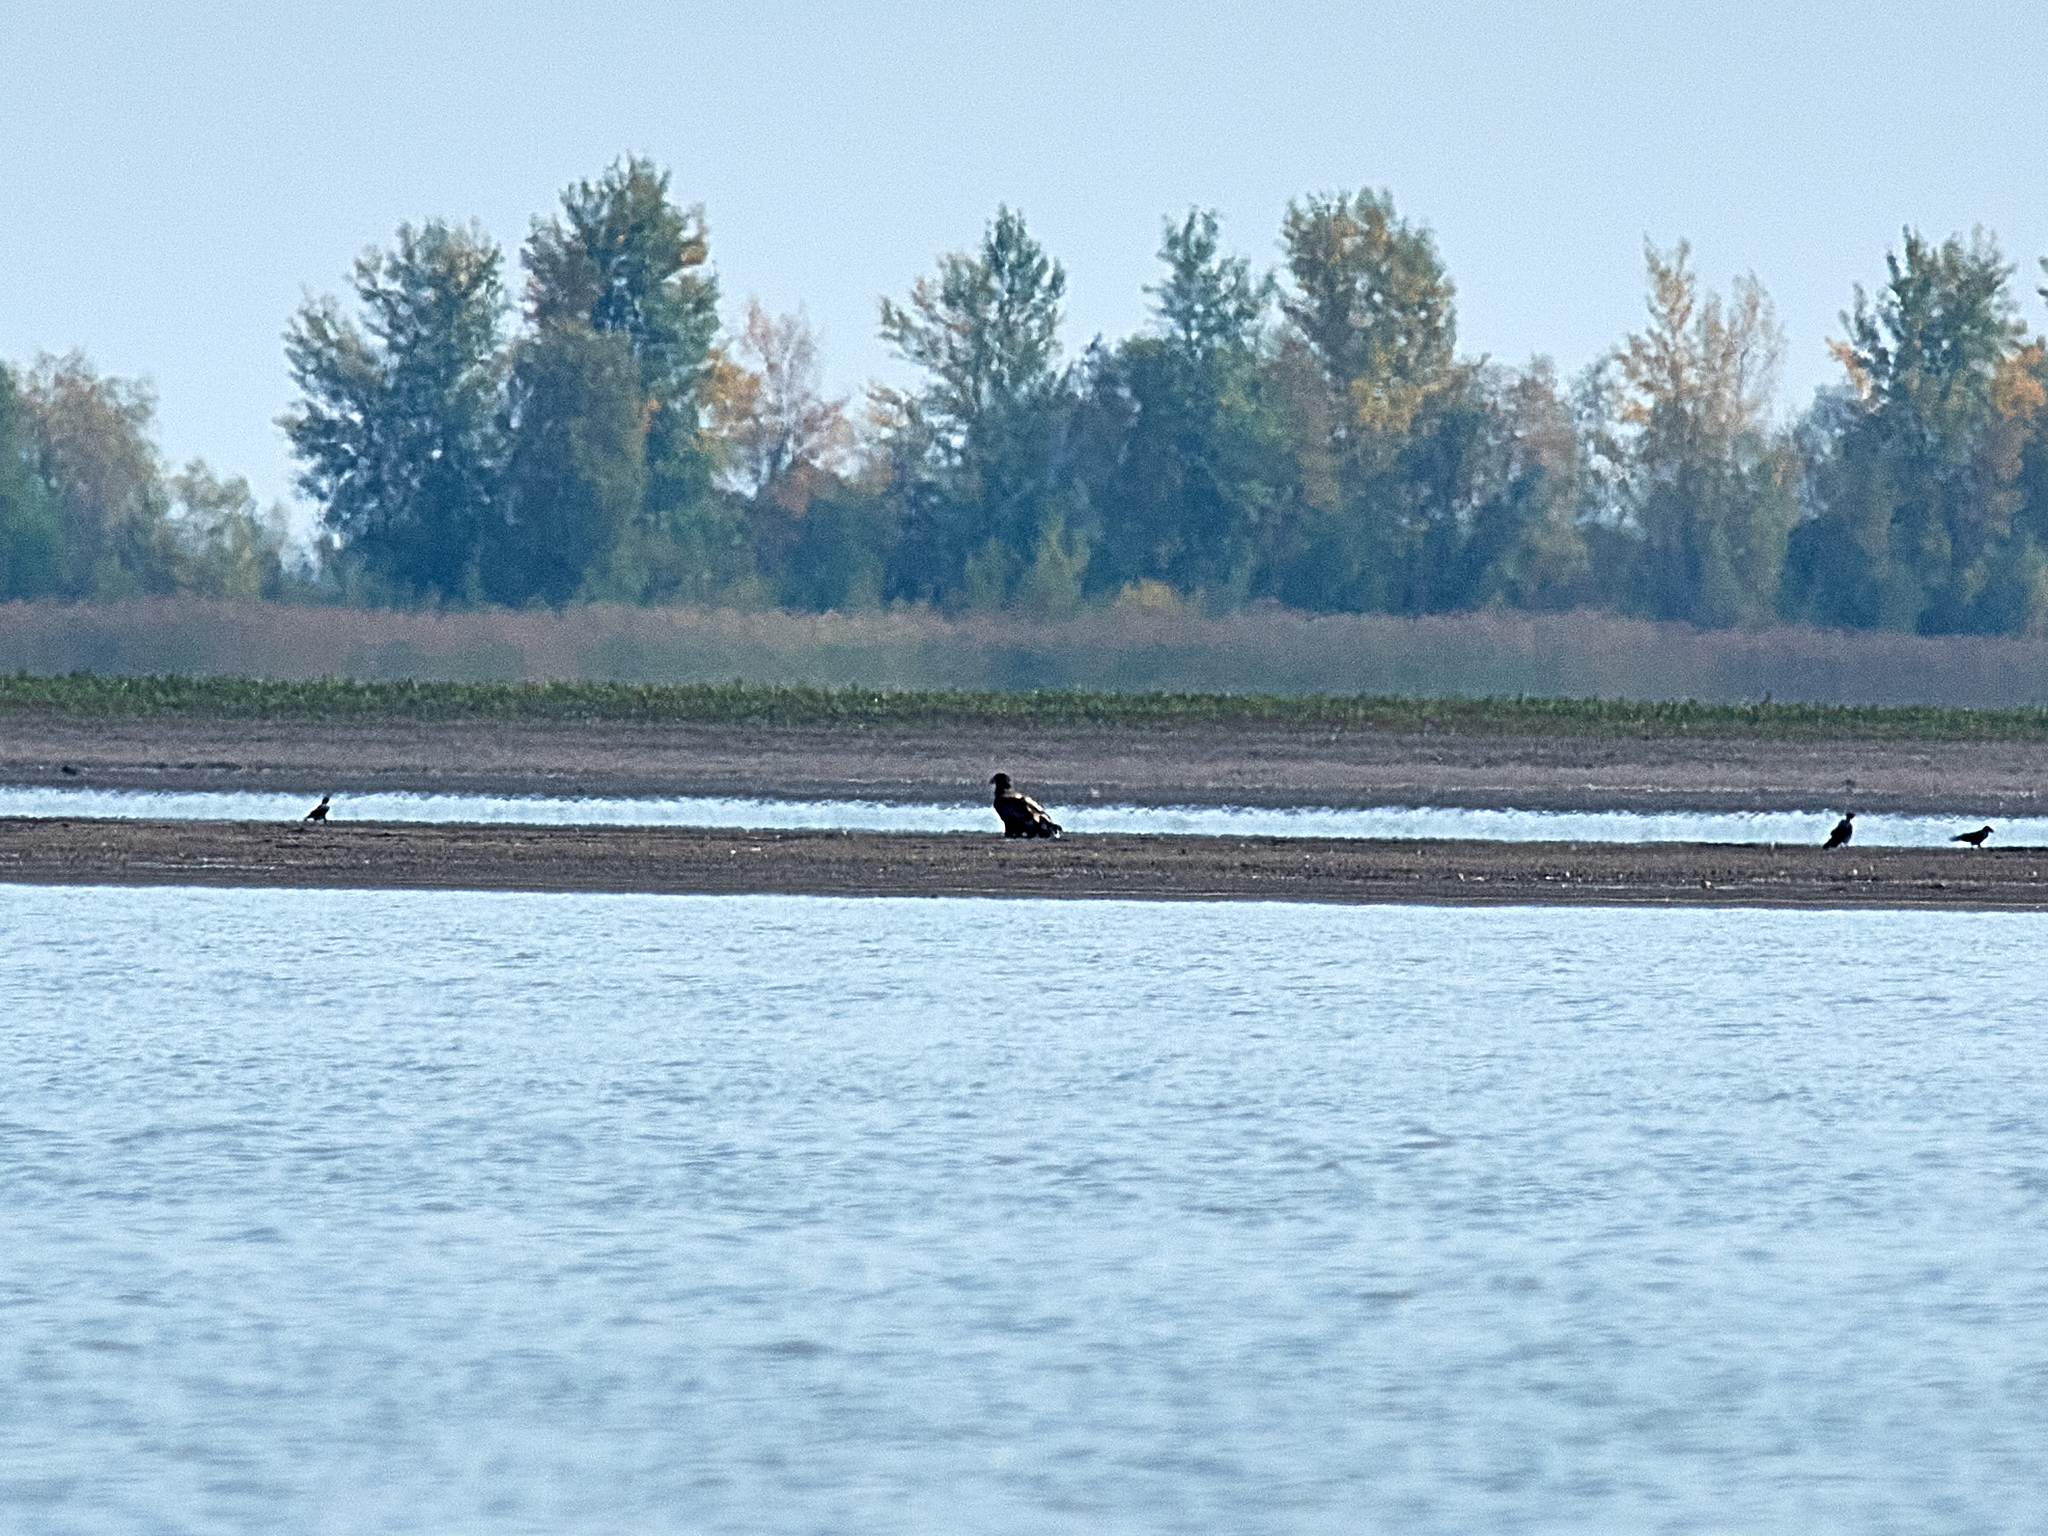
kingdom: Animalia
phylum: Chordata
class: Aves
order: Accipitriformes
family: Accipitridae
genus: Haliaeetus
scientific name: Haliaeetus albicilla
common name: White-tailed eagle
